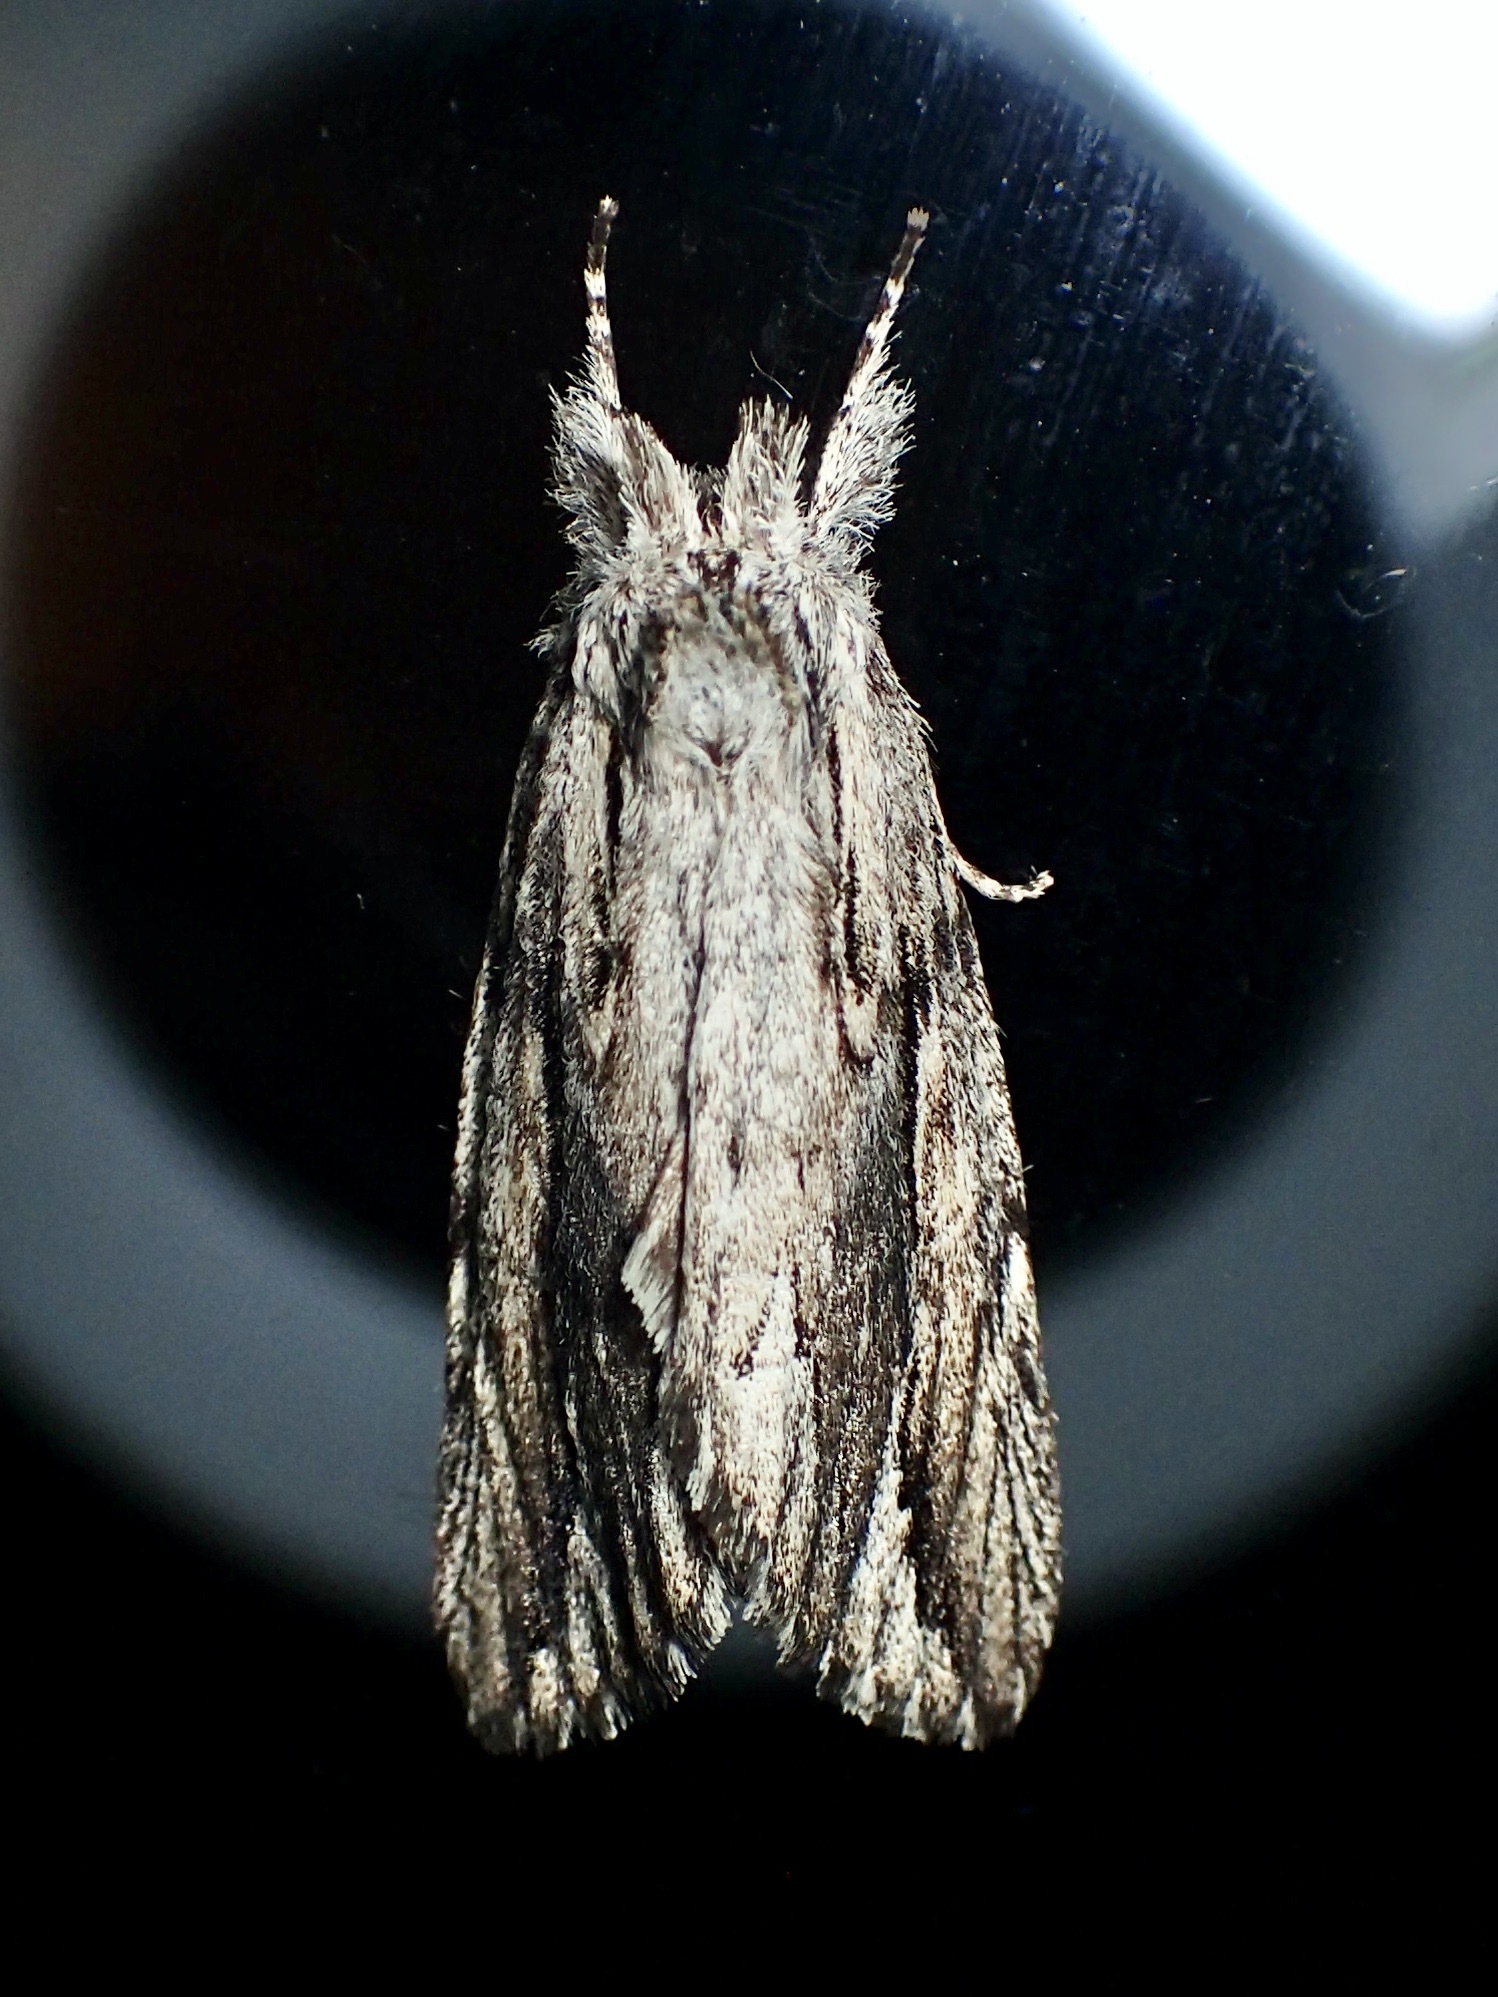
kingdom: Animalia
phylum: Arthropoda
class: Insecta
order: Lepidoptera
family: Notodontidae
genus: Ecnomodes
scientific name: Ecnomodes sagittaria
